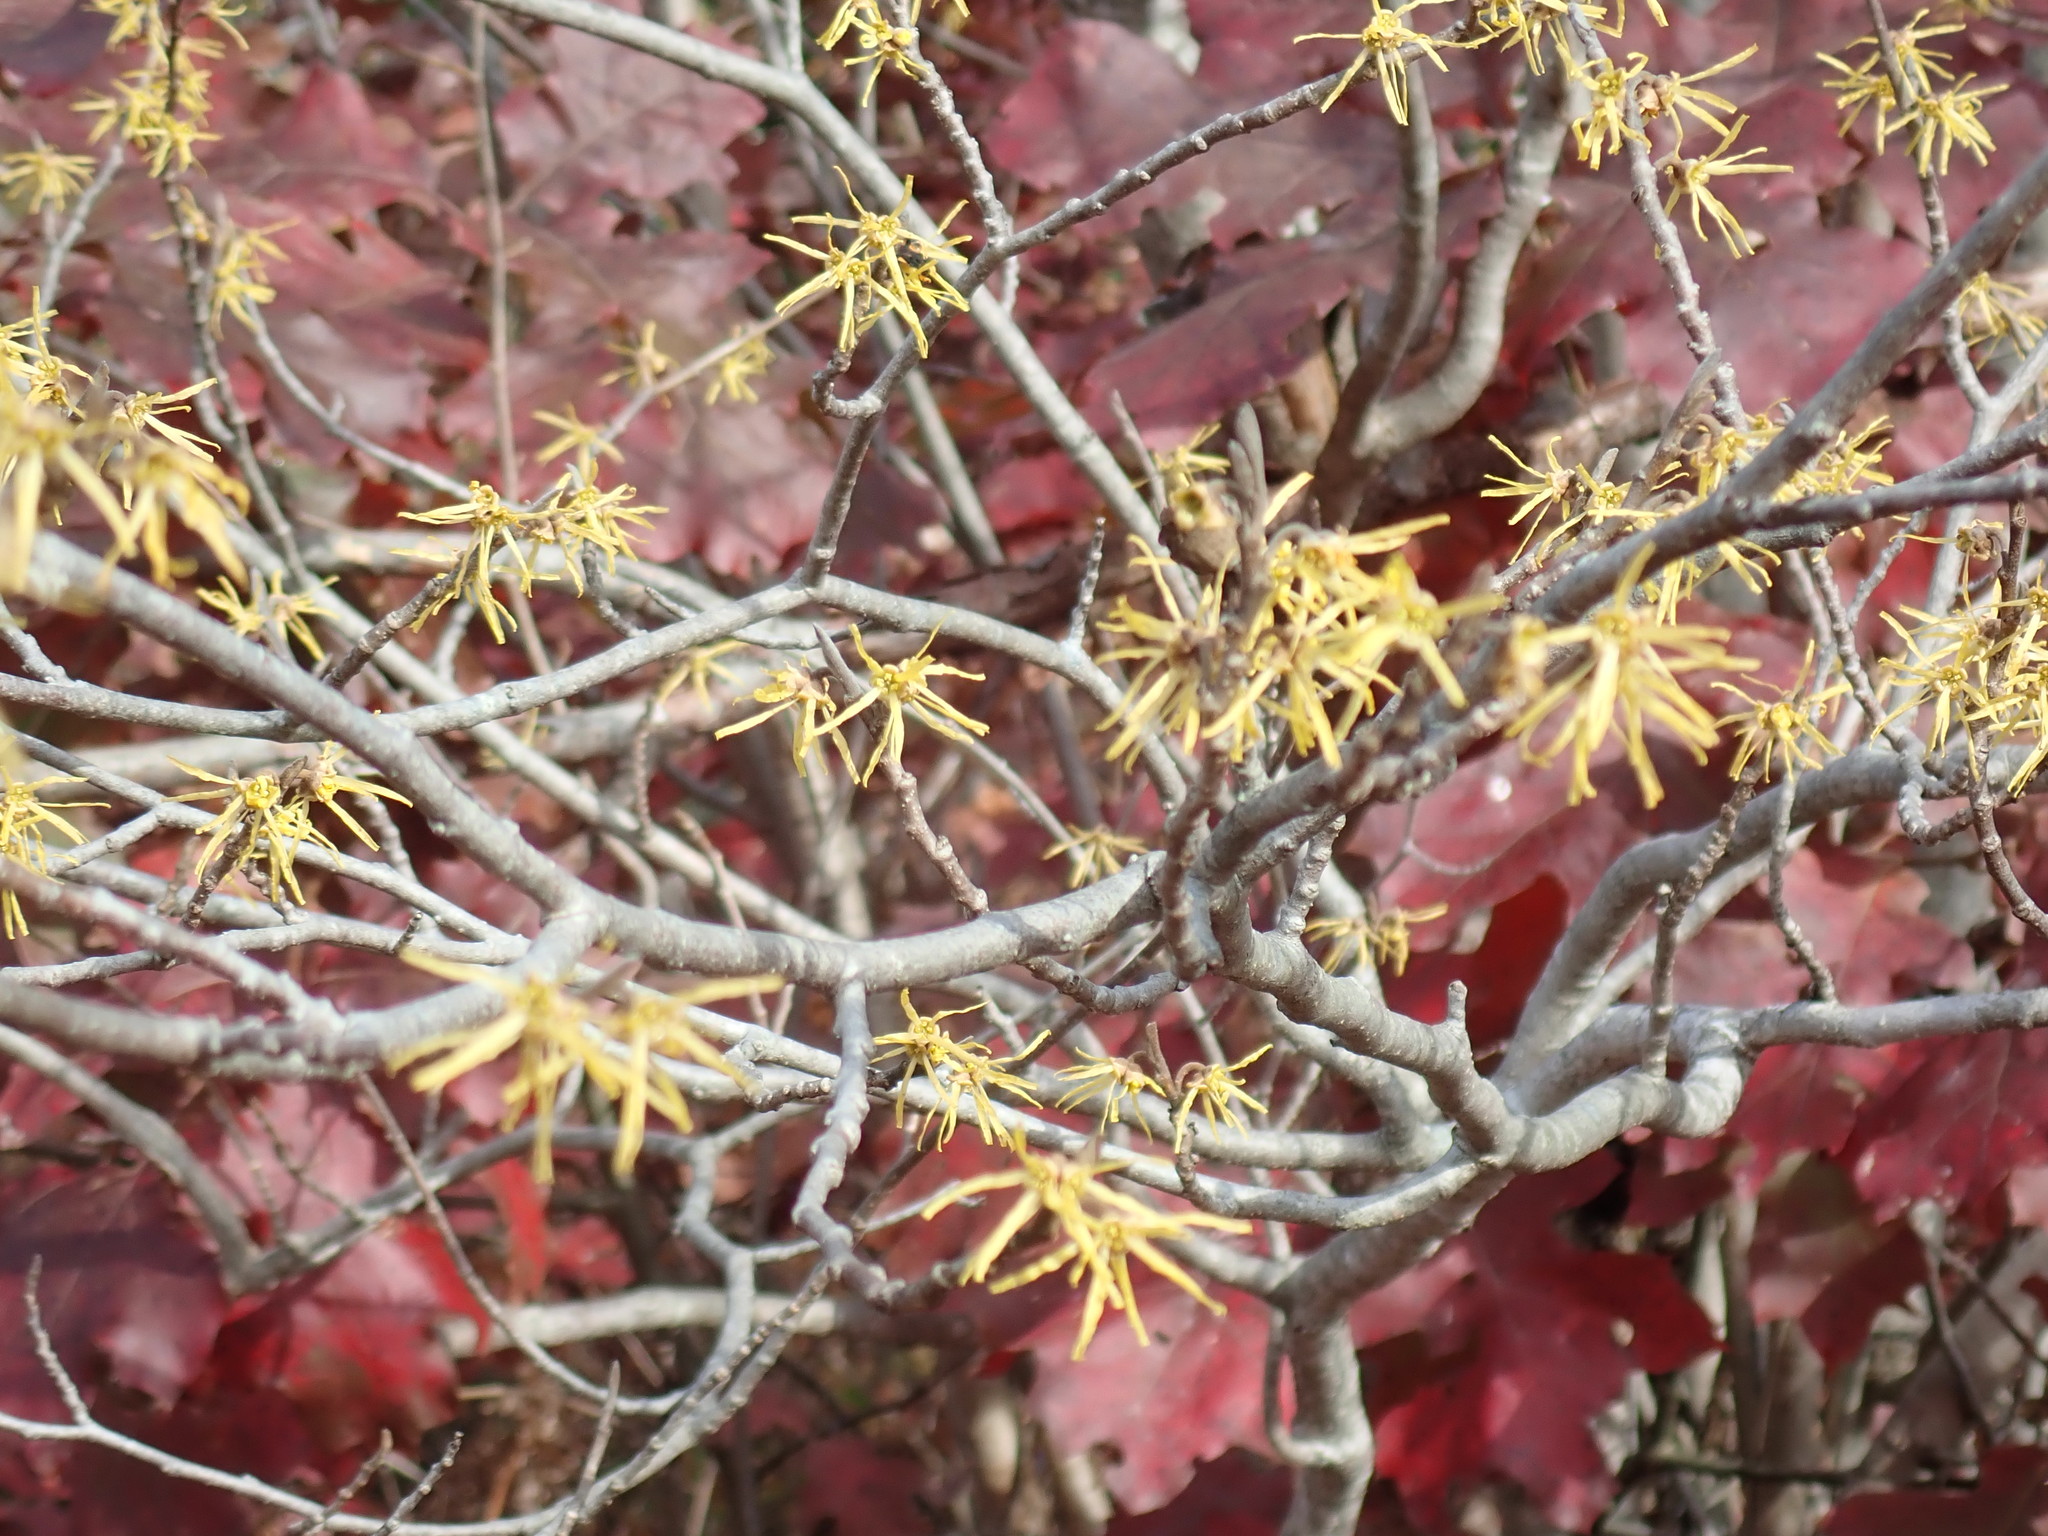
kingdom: Plantae
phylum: Tracheophyta
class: Magnoliopsida
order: Saxifragales
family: Hamamelidaceae
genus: Hamamelis
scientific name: Hamamelis virginiana
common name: Witch-hazel
